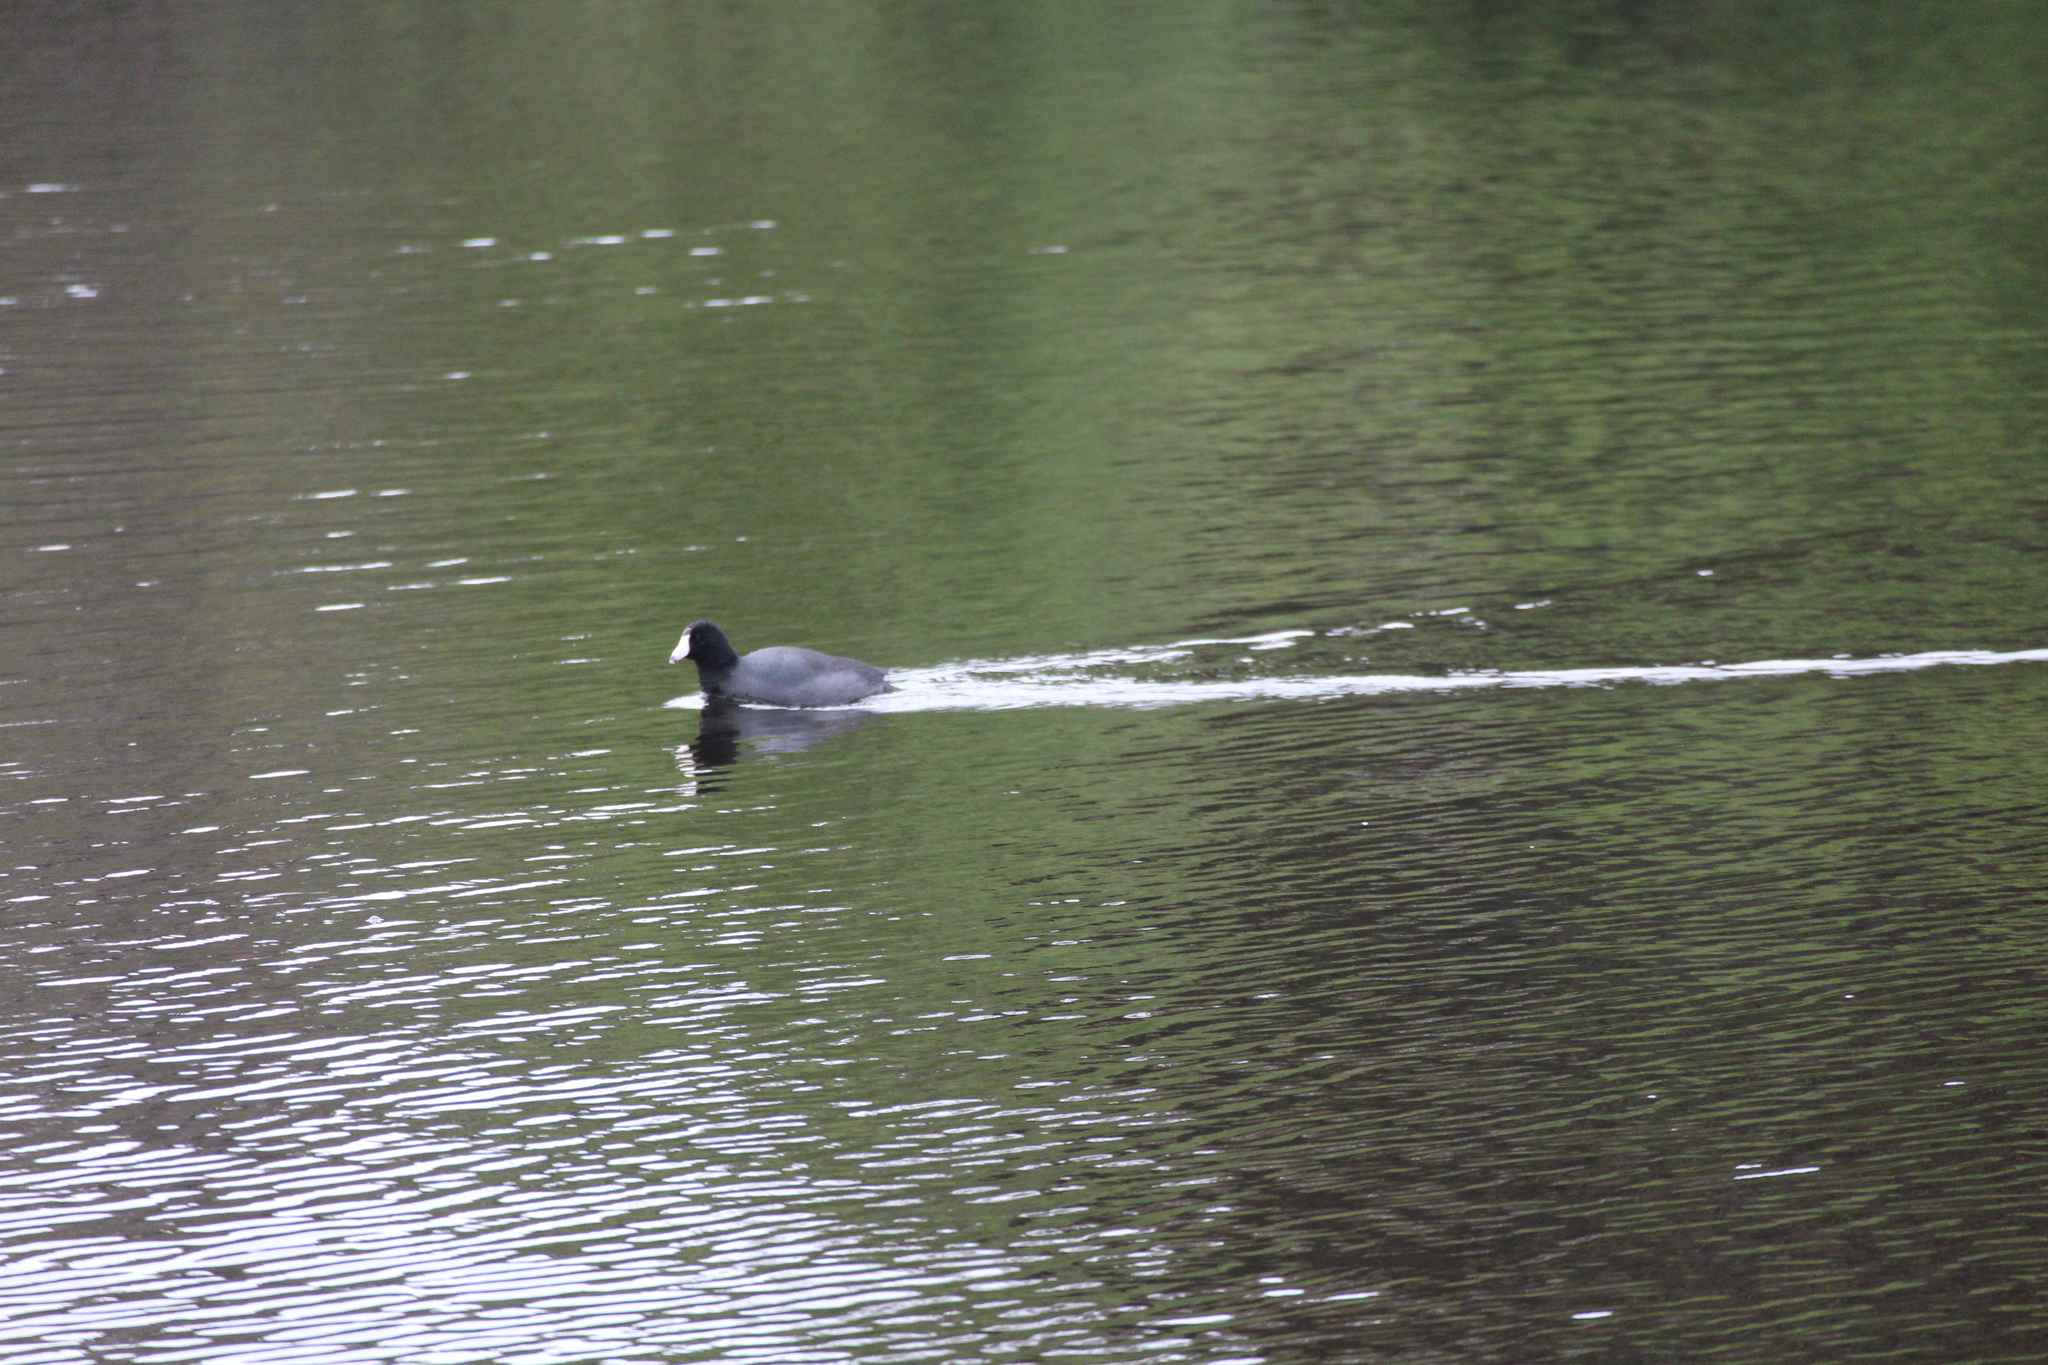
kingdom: Animalia
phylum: Chordata
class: Aves
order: Gruiformes
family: Rallidae
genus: Fulica
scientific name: Fulica americana
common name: American coot
